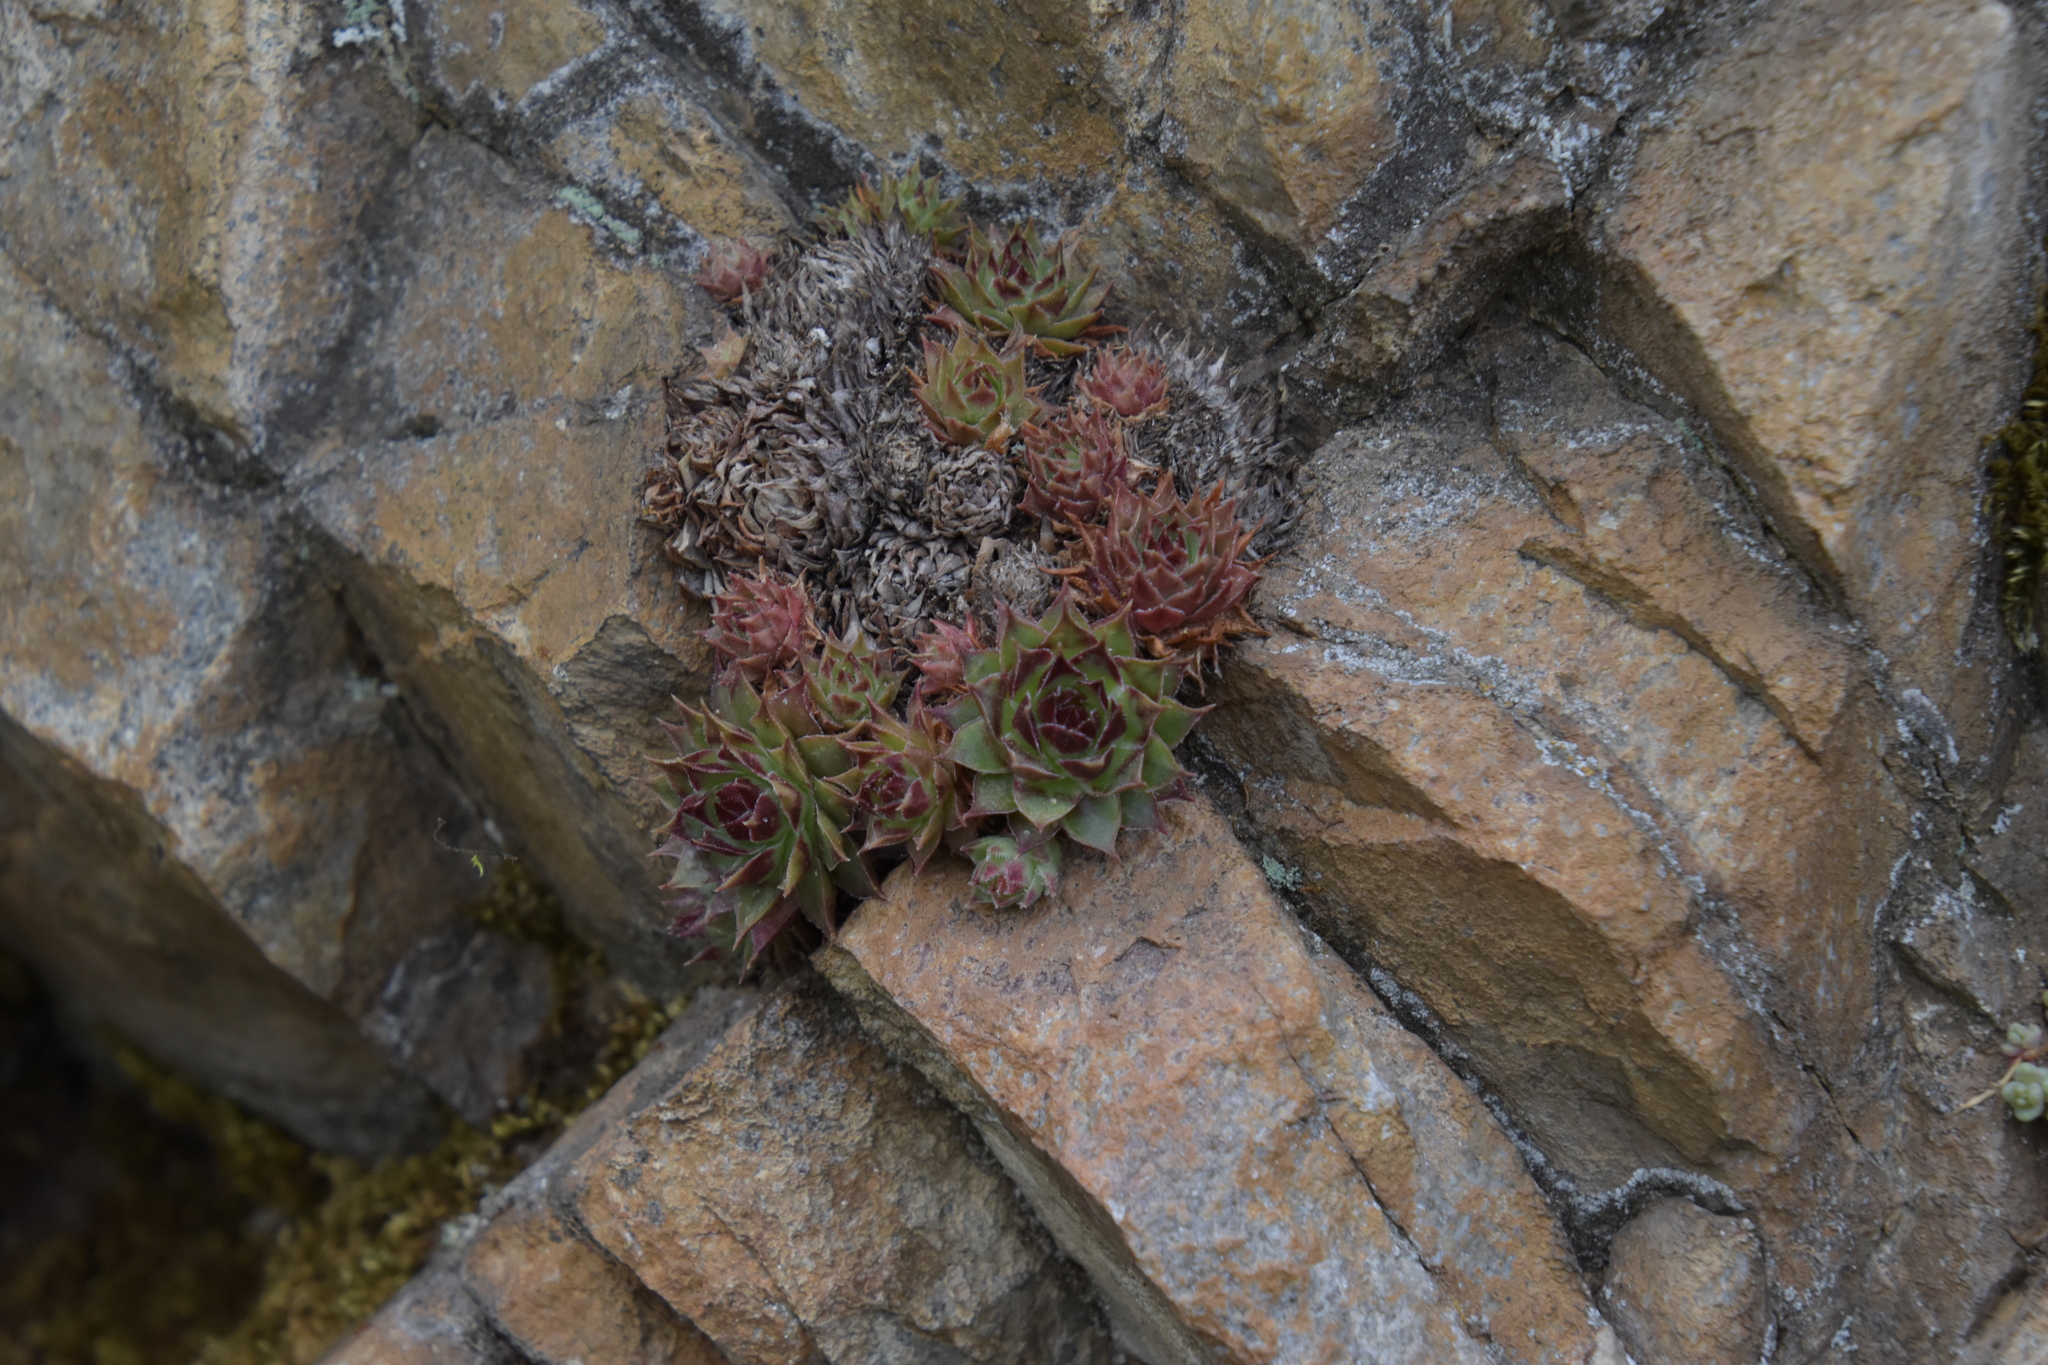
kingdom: Plantae
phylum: Tracheophyta
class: Magnoliopsida
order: Saxifragales
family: Crassulaceae
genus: Sempervivum
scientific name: Sempervivum tectorum
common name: House-leek
